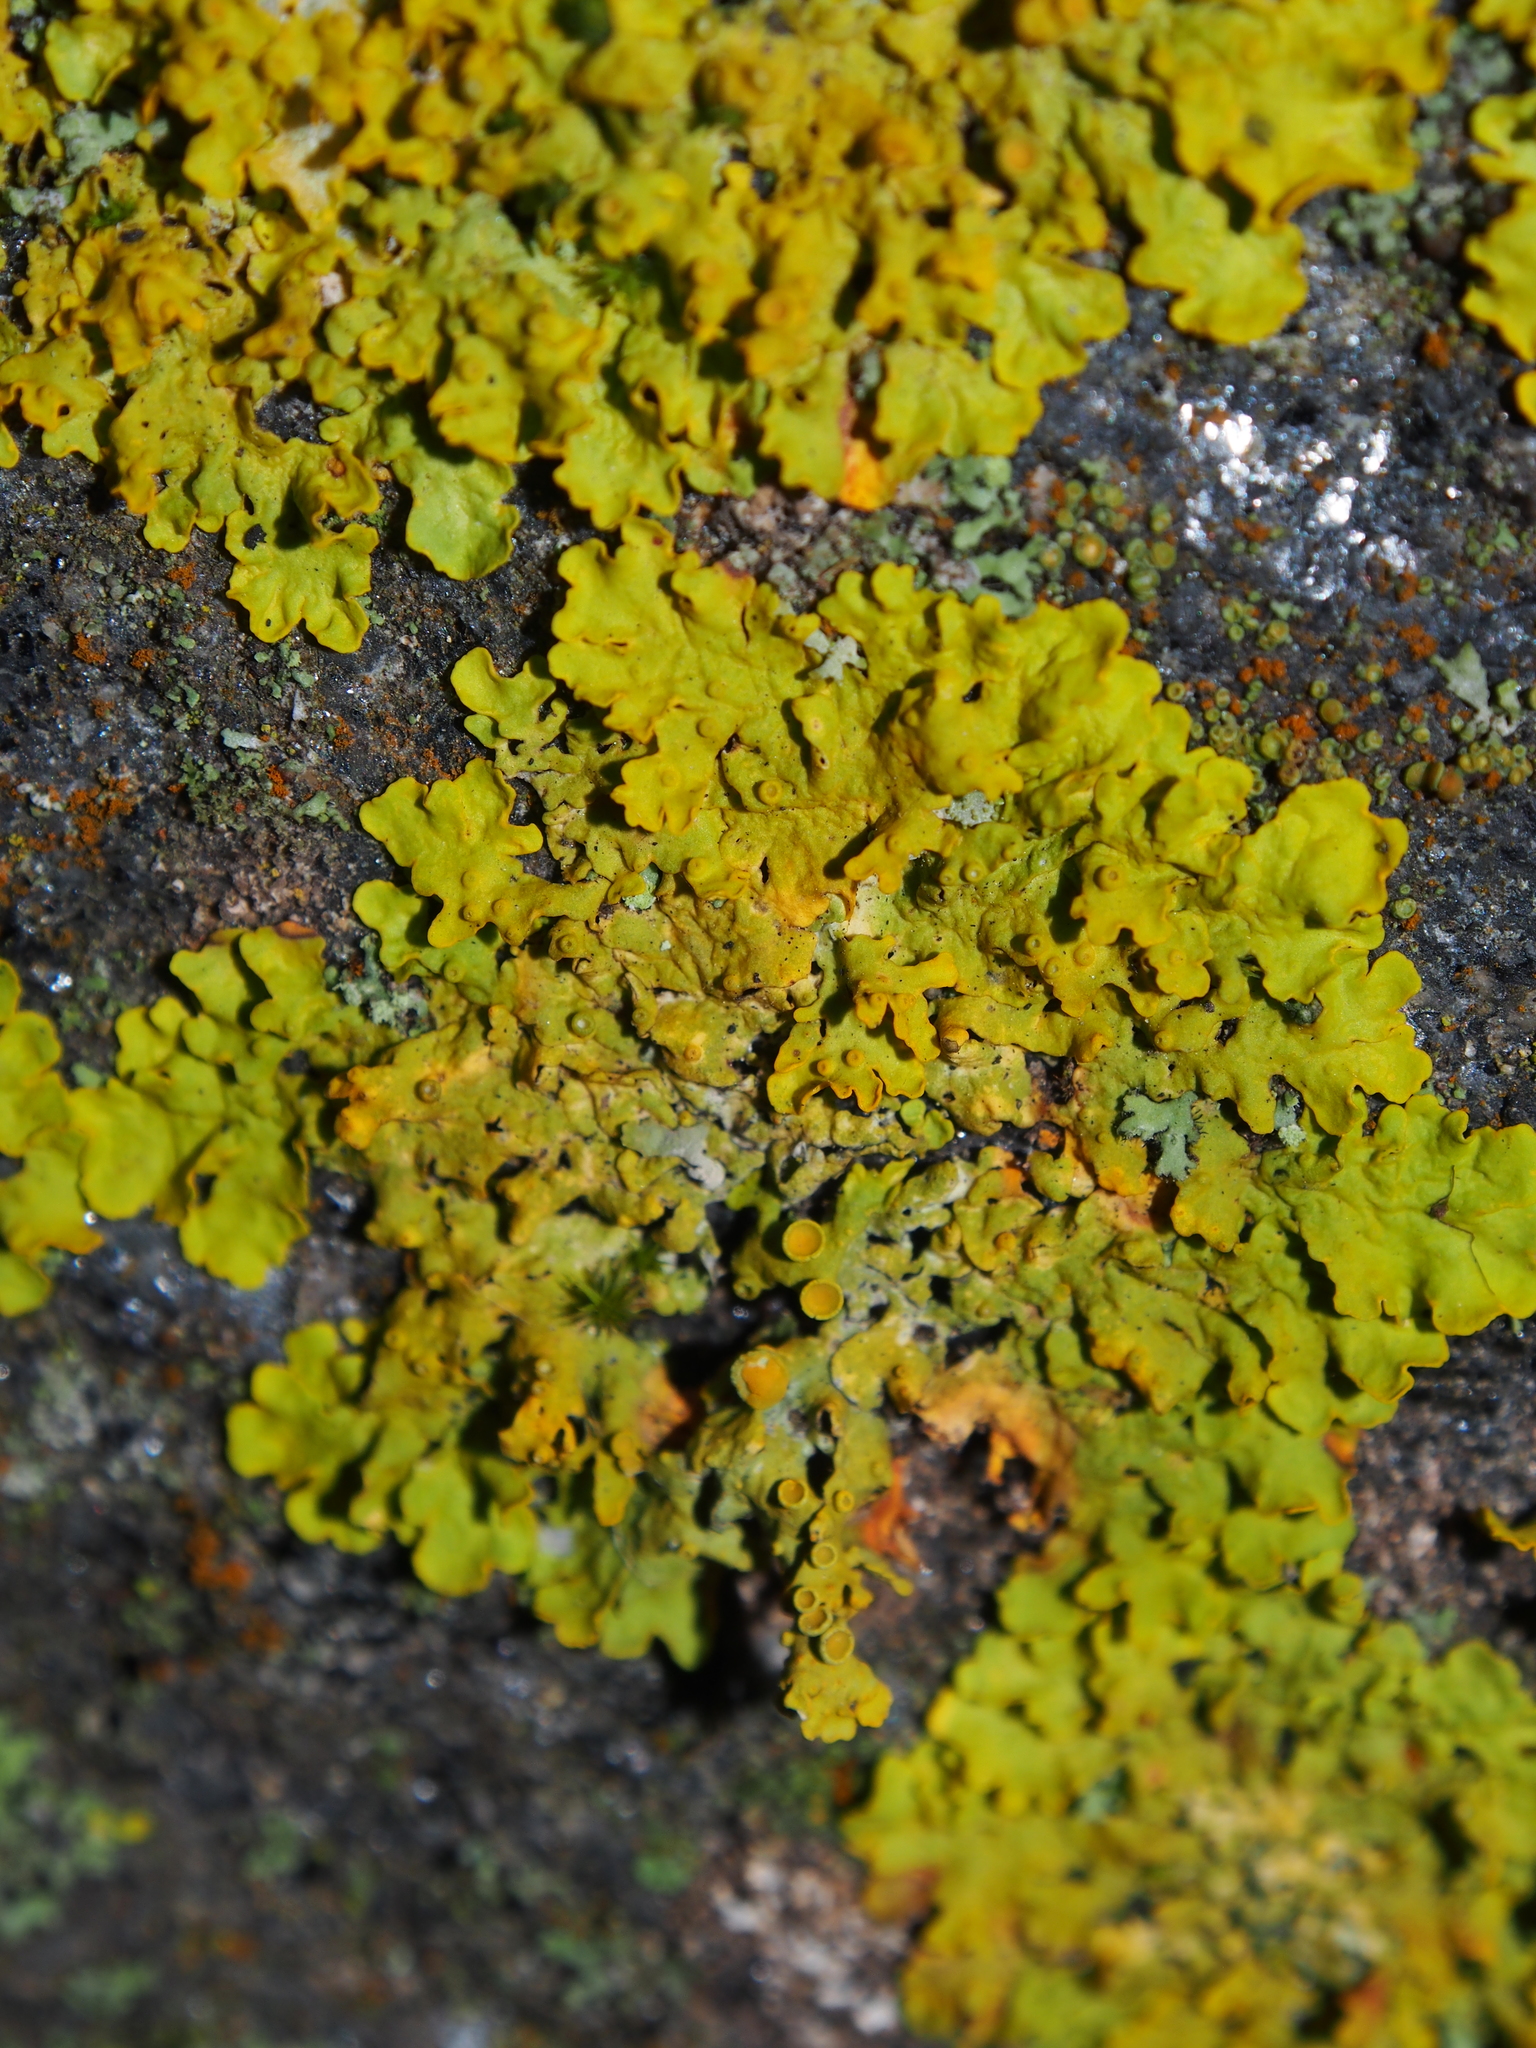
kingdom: Fungi
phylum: Ascomycota
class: Lecanoromycetes
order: Teloschistales
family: Teloschistaceae
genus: Xanthoria
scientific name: Xanthoria parietina
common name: Common orange lichen
